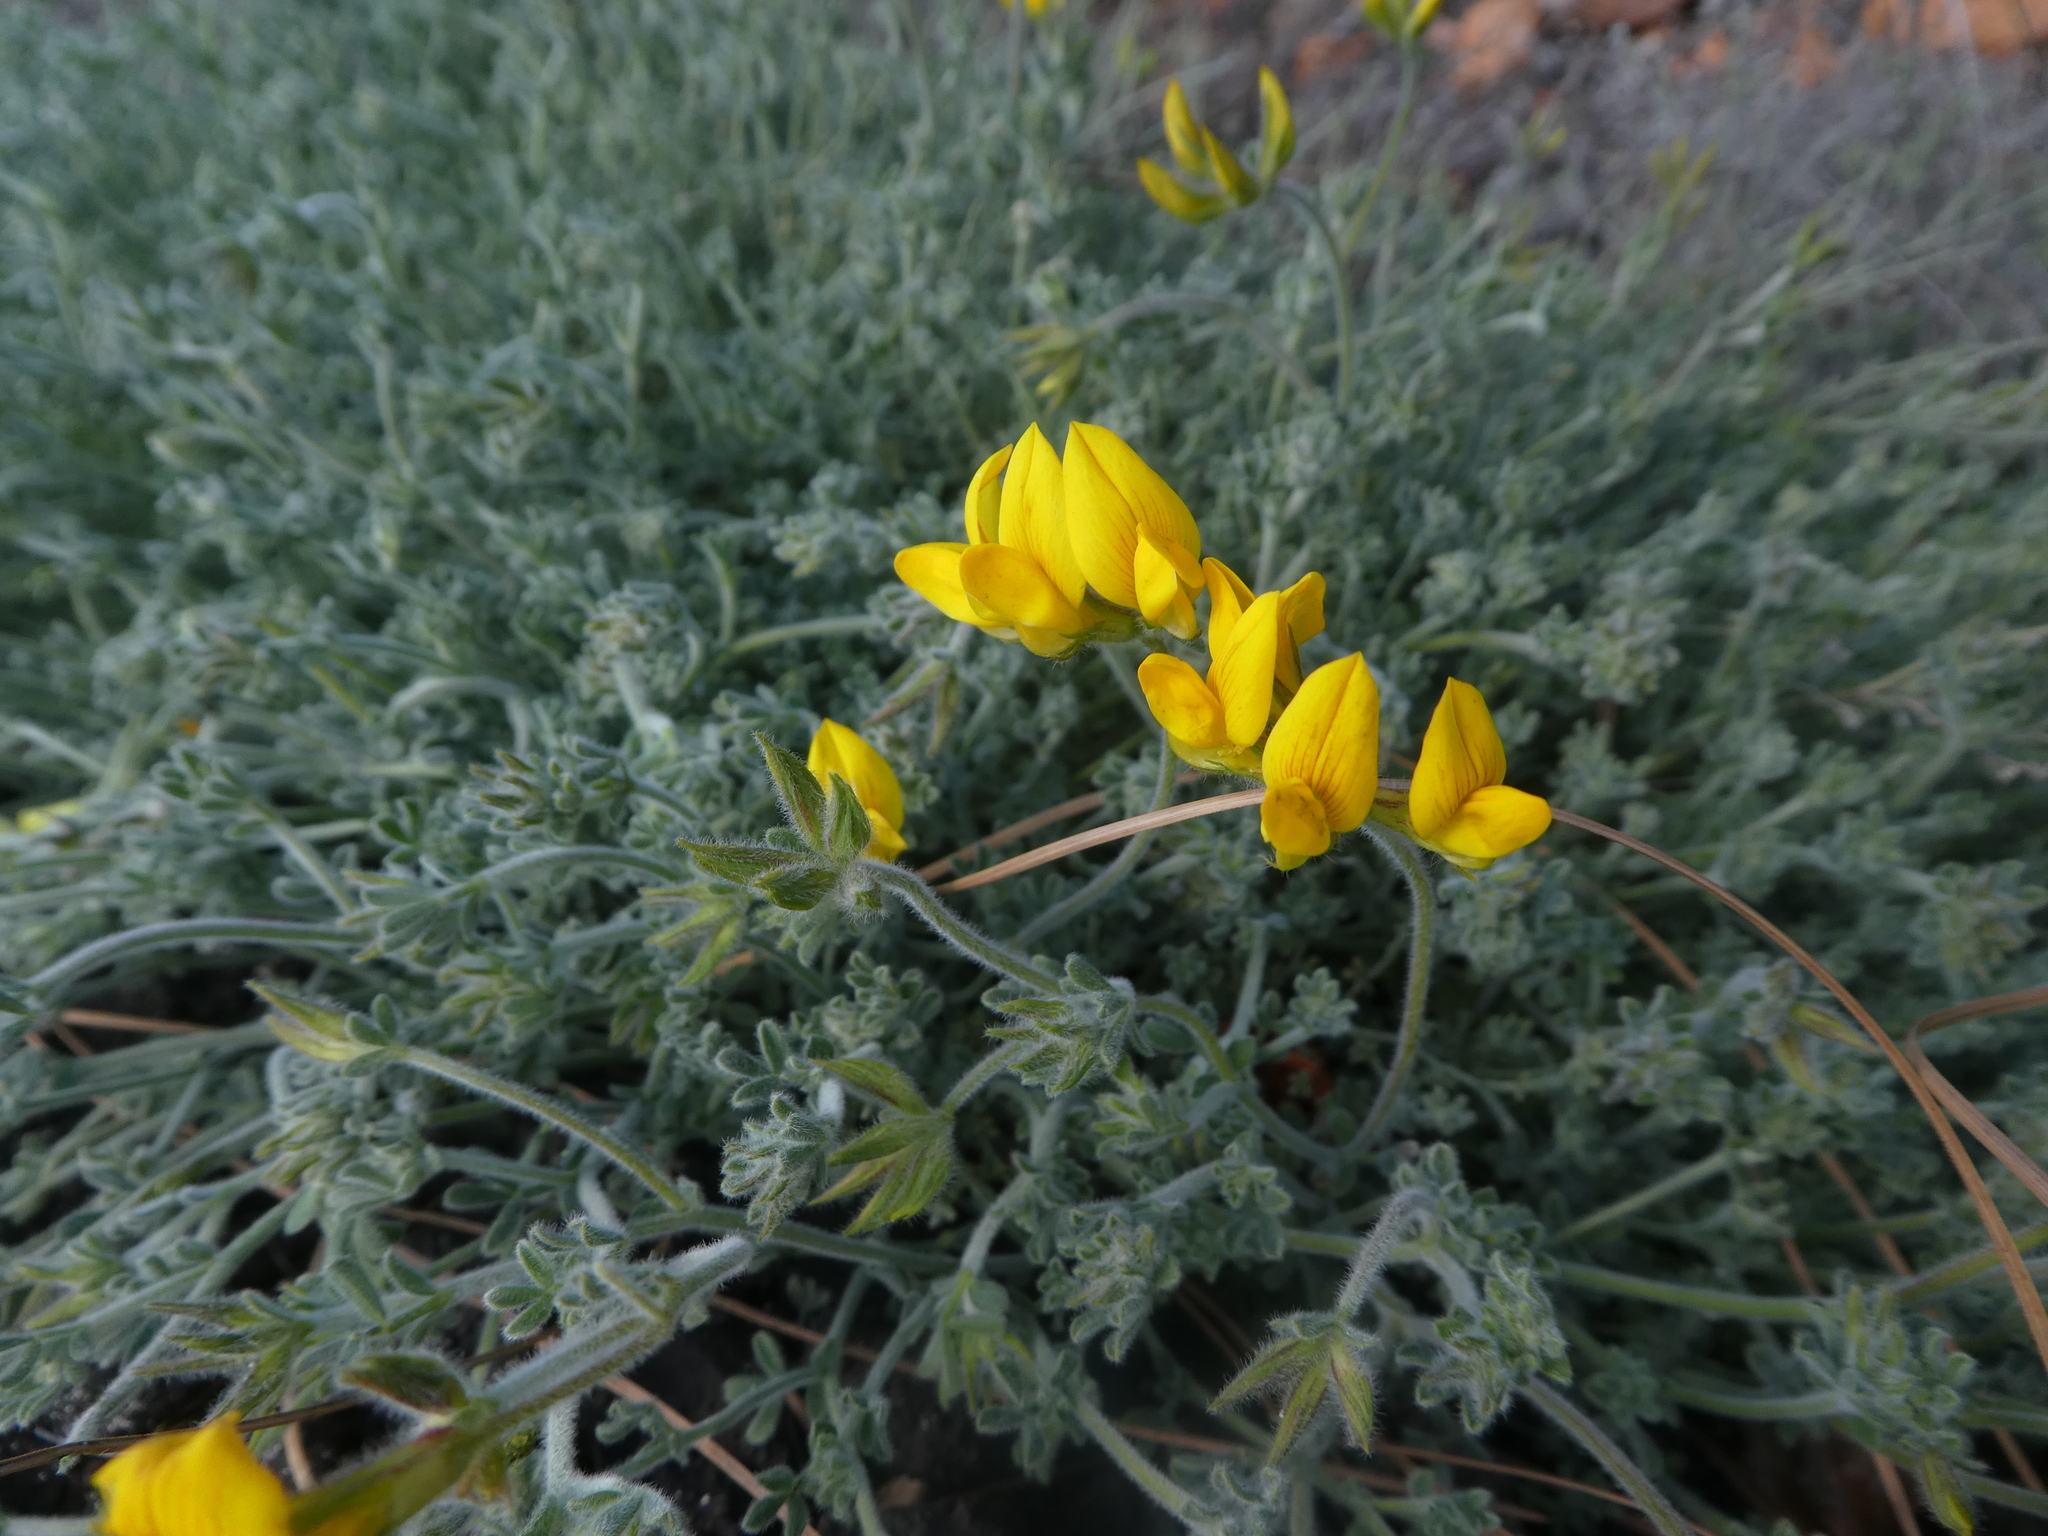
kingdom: Plantae
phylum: Tracheophyta
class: Magnoliopsida
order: Fabales
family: Fabaceae
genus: Lotus
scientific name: Lotus campylocladus
